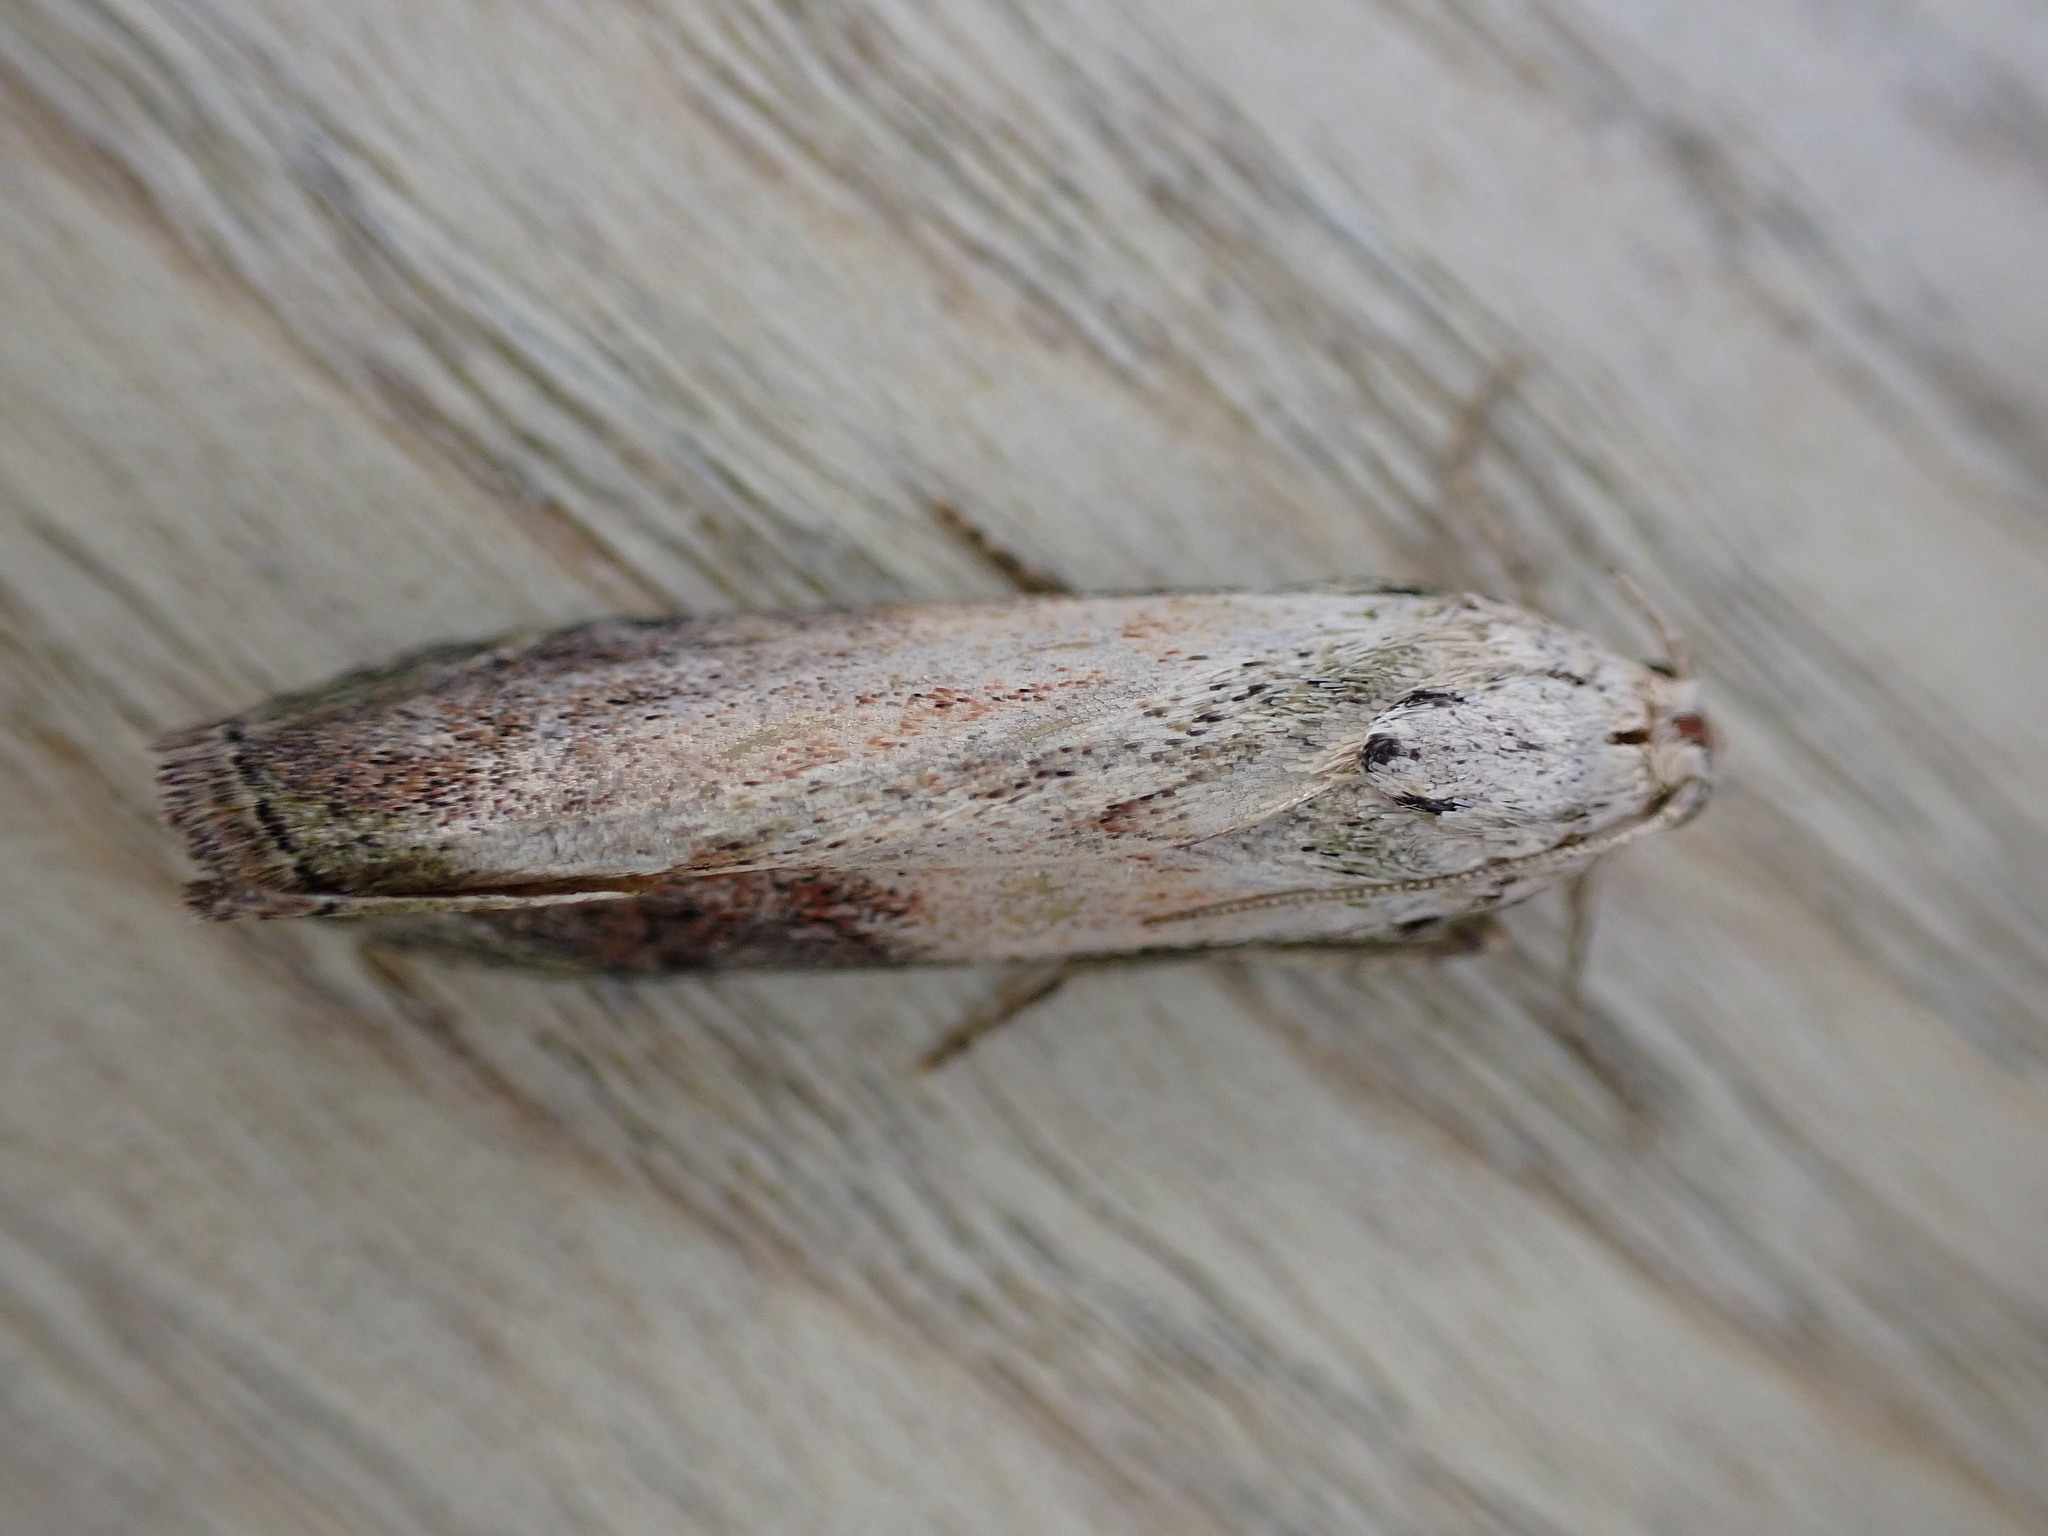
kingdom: Animalia
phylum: Arthropoda
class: Insecta
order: Lepidoptera
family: Pyralidae
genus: Aphomia
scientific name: Aphomia sociella
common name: Bee moth
